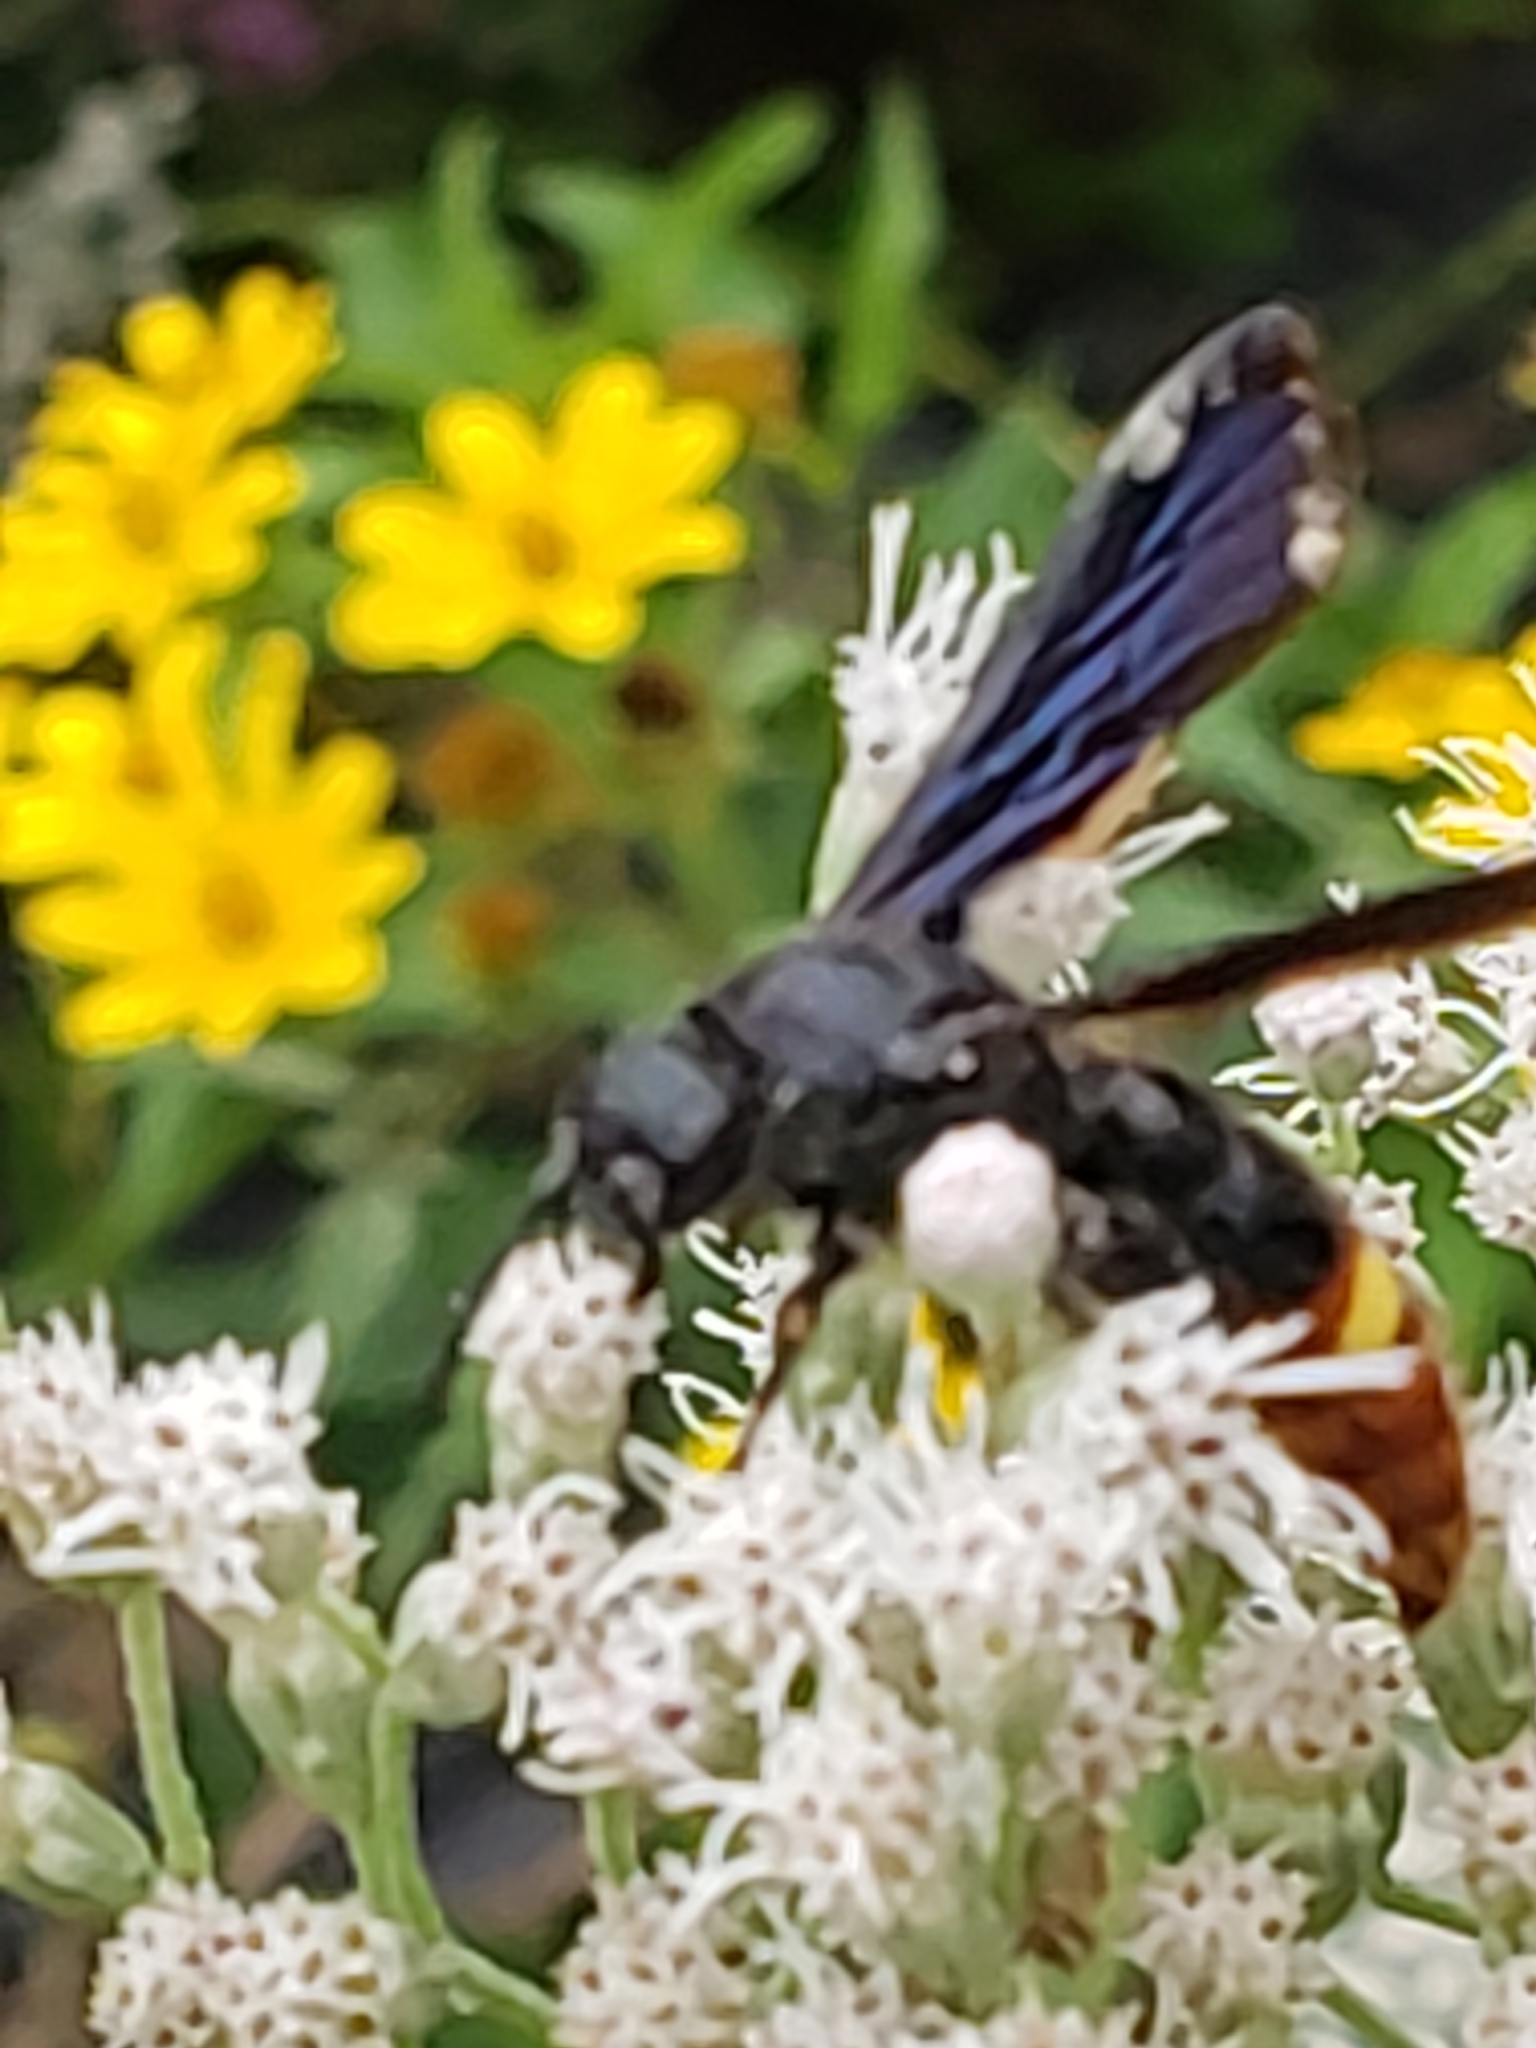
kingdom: Animalia
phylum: Arthropoda
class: Insecta
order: Hymenoptera
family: Scoliidae
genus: Scolia
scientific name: Scolia dubia
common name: Blue-winged scoliid wasp
